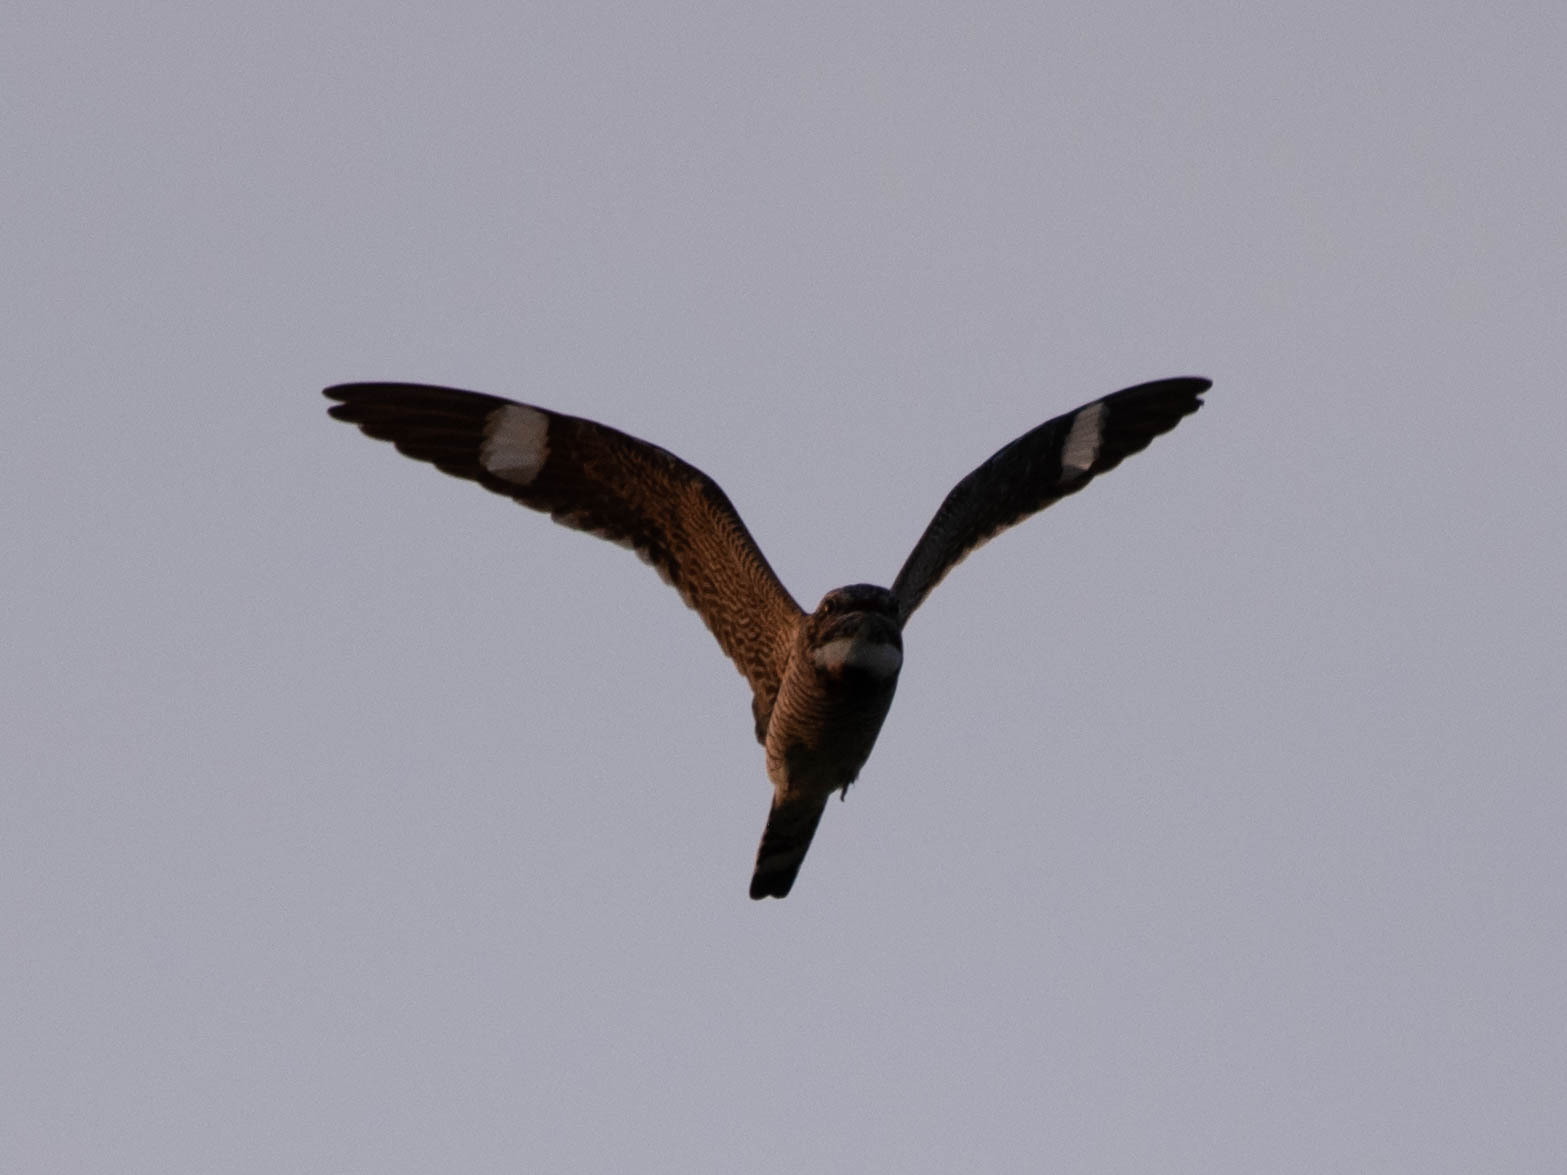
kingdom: Animalia
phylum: Chordata
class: Aves
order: Caprimulgiformes
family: Caprimulgidae
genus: Chordeiles
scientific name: Chordeiles minor
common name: Common nighthawk
